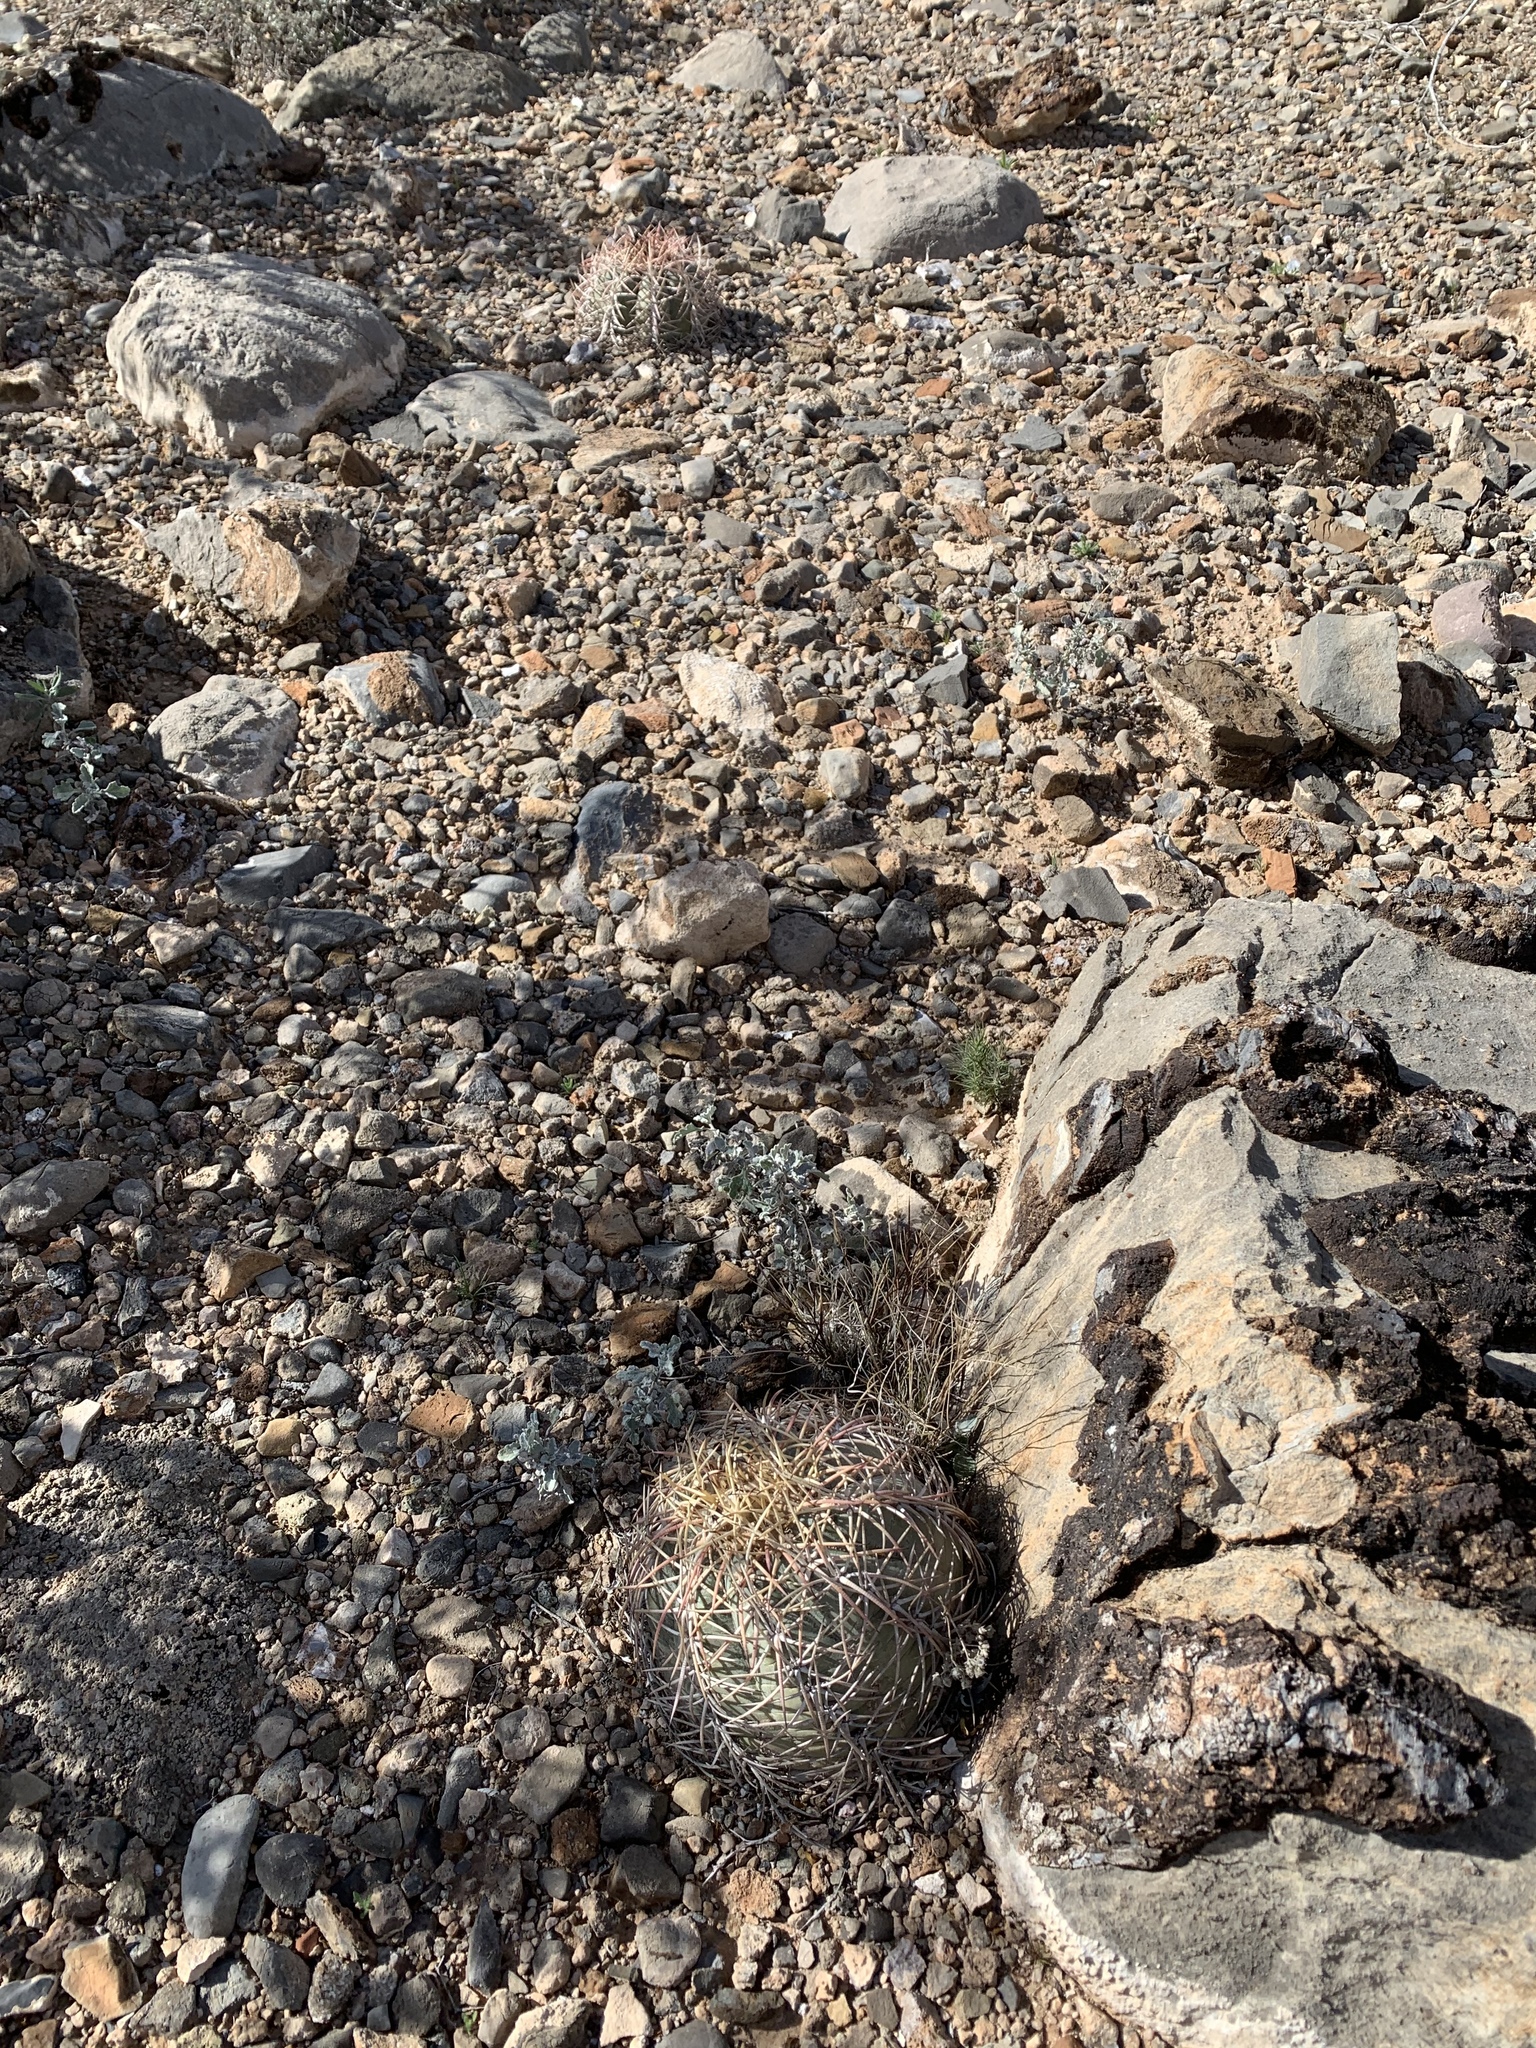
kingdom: Plantae
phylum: Tracheophyta
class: Magnoliopsida
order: Caryophyllales
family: Cactaceae
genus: Echinocactus
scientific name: Echinocactus horizonthalonius
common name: Devilshead
